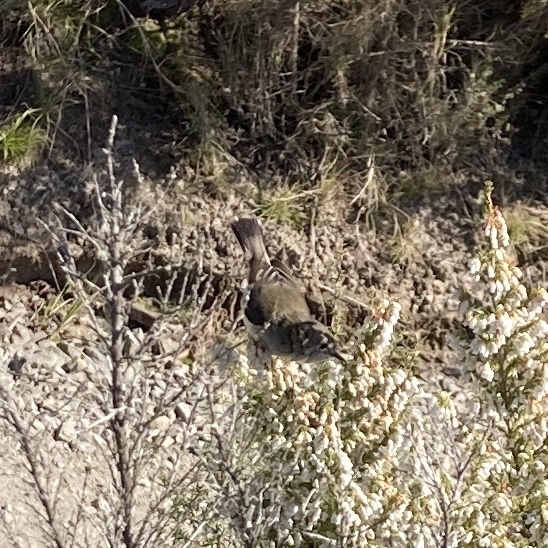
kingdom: Animalia
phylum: Chordata
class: Aves
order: Passeriformes
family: Acanthizidae
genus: Gerygone
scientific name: Gerygone igata
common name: Grey gerygone
